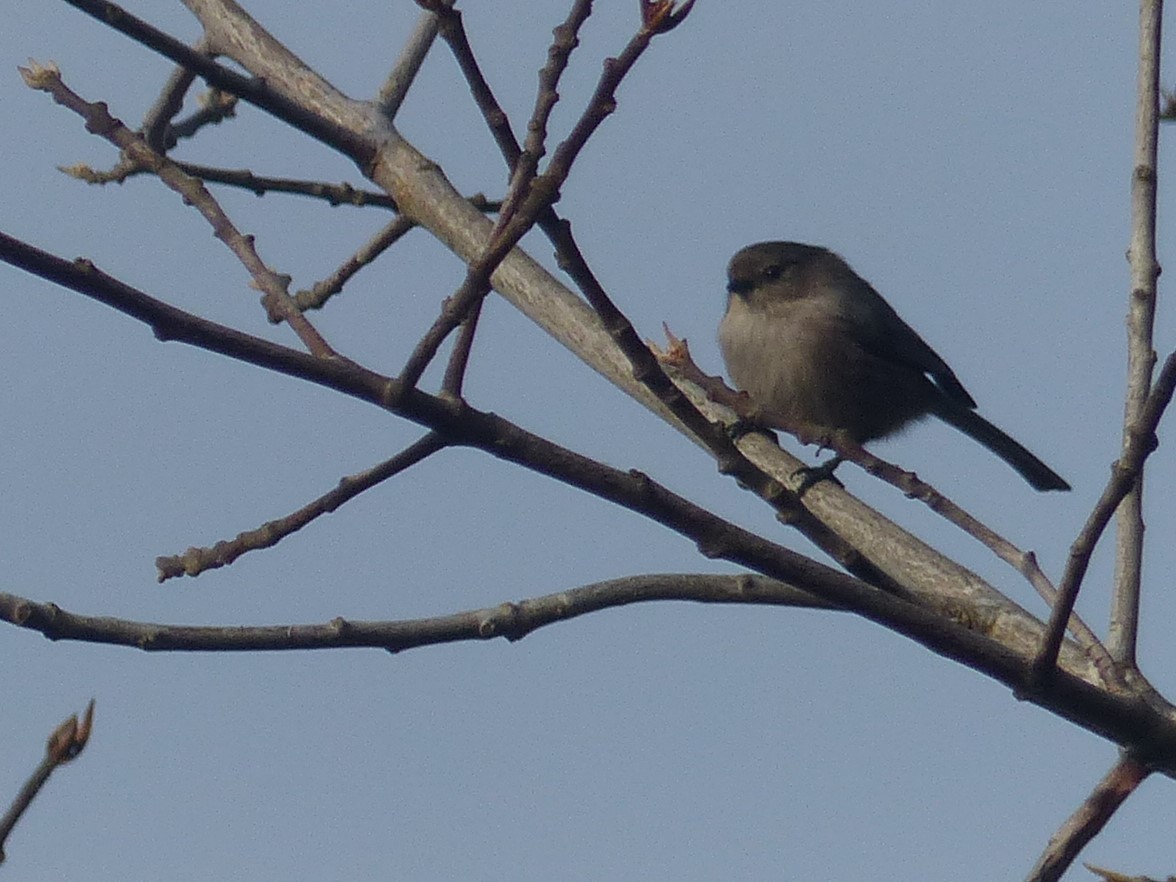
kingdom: Animalia
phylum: Chordata
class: Aves
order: Passeriformes
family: Aegithalidae
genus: Psaltriparus
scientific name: Psaltriparus minimus
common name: American bushtit
